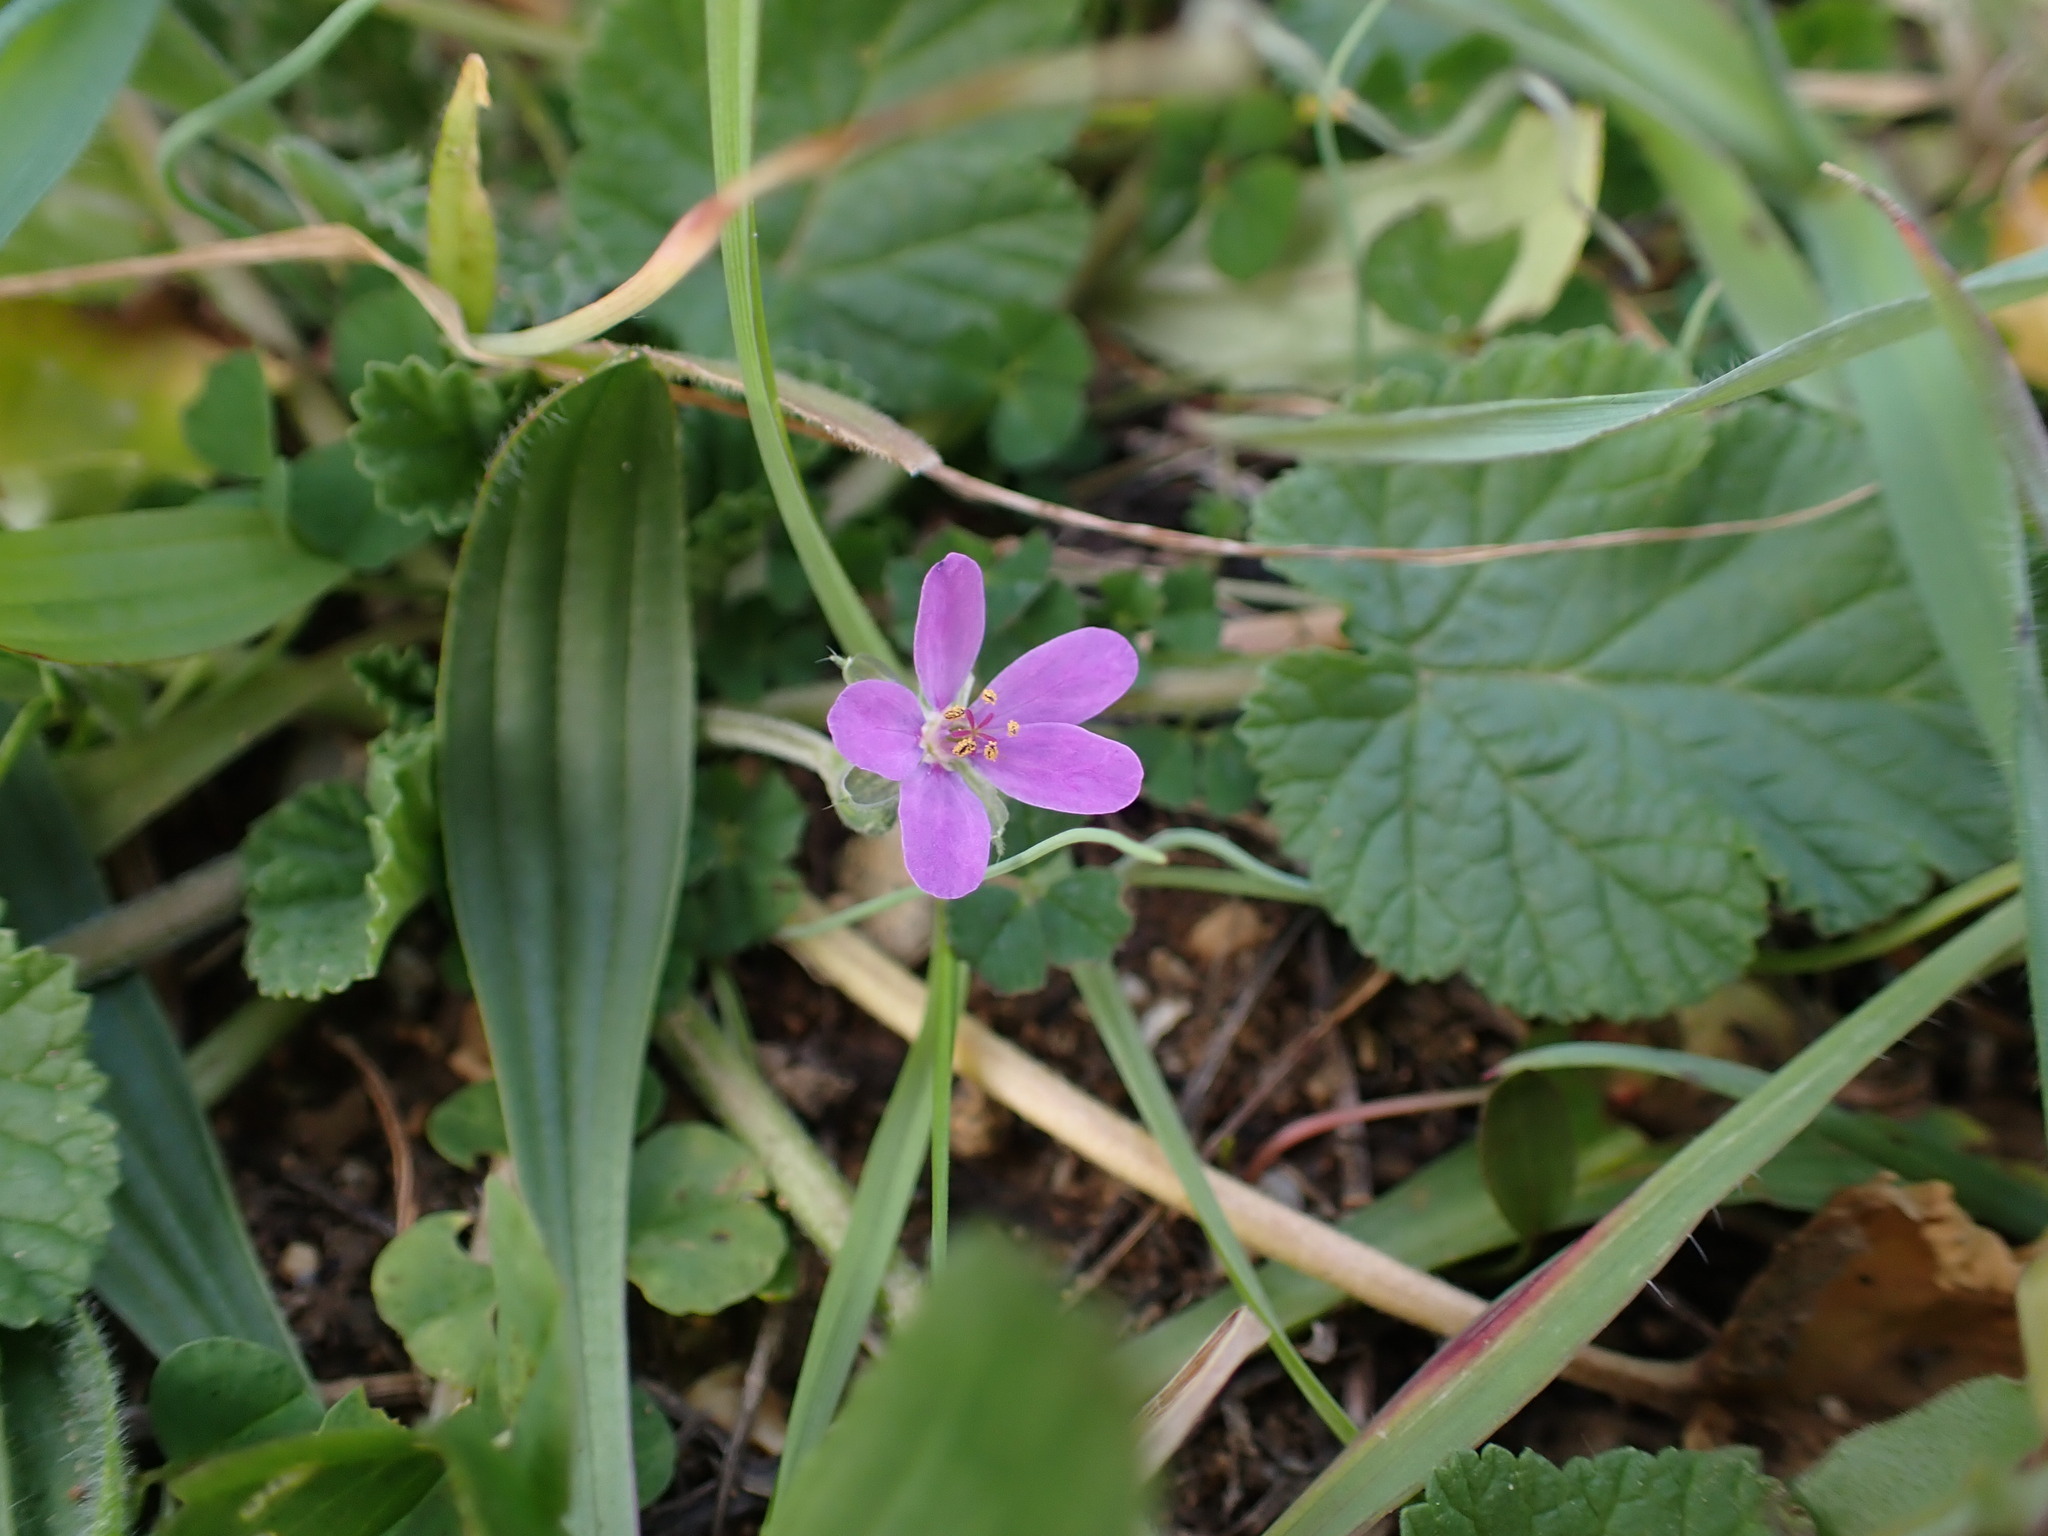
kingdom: Plantae
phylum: Tracheophyta
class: Magnoliopsida
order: Geraniales
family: Geraniaceae
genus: Erodium
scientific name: Erodium malacoides
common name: Soft stork's-bill
